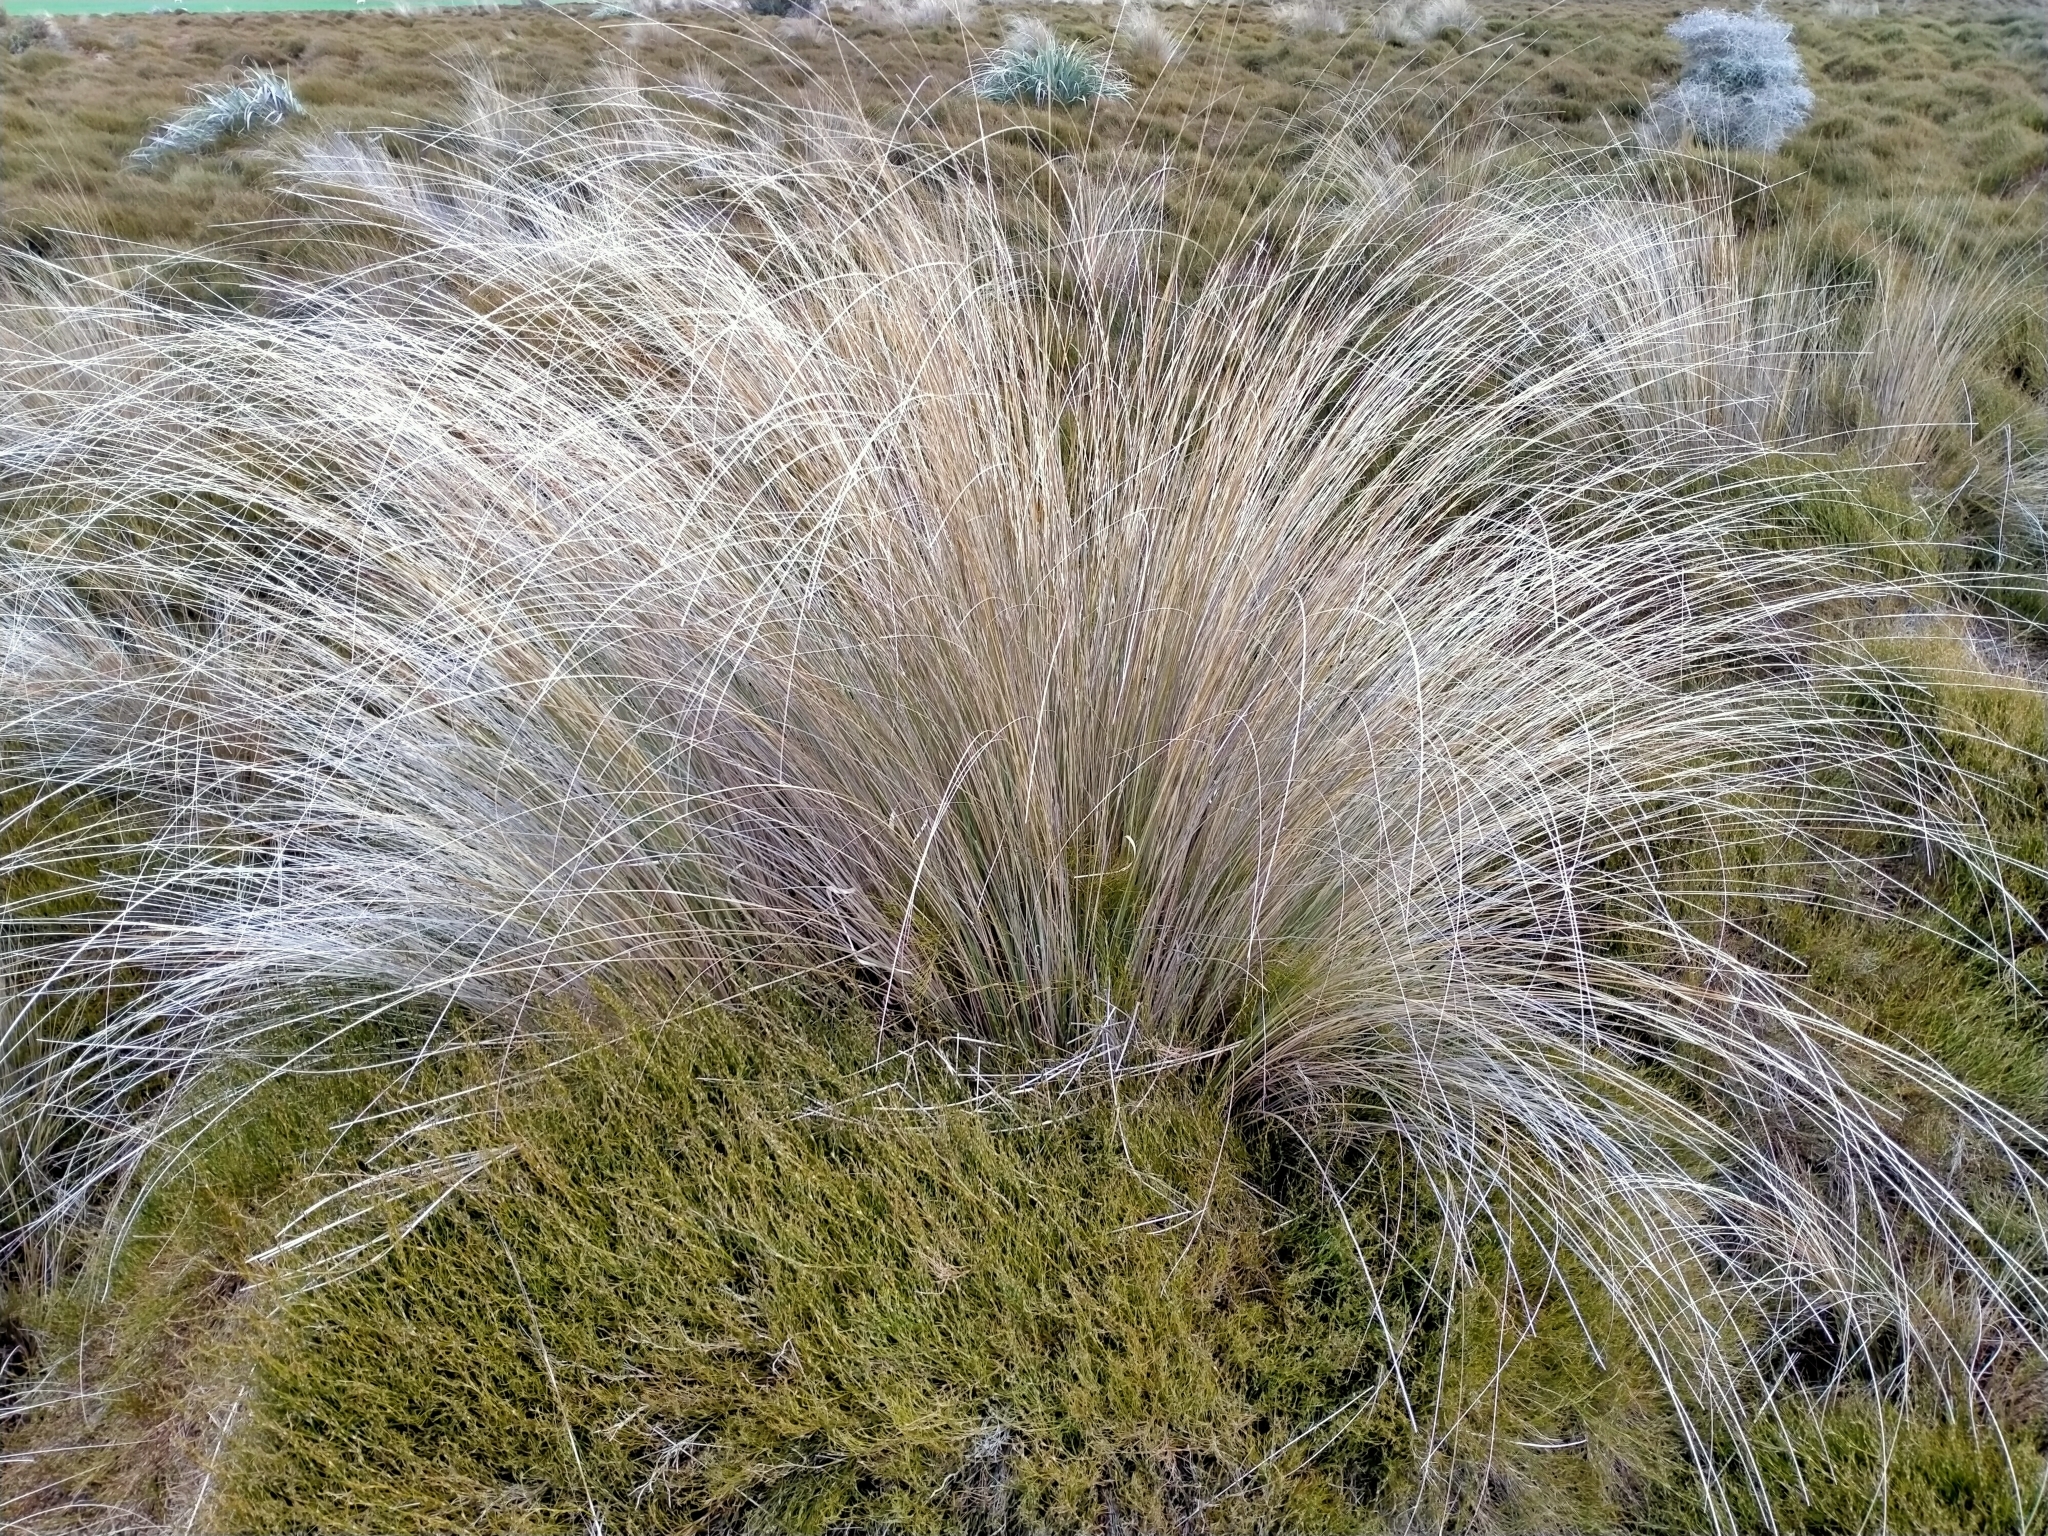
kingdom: Plantae
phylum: Tracheophyta
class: Liliopsida
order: Poales
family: Poaceae
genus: Chionochloa
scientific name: Chionochloa rubra
